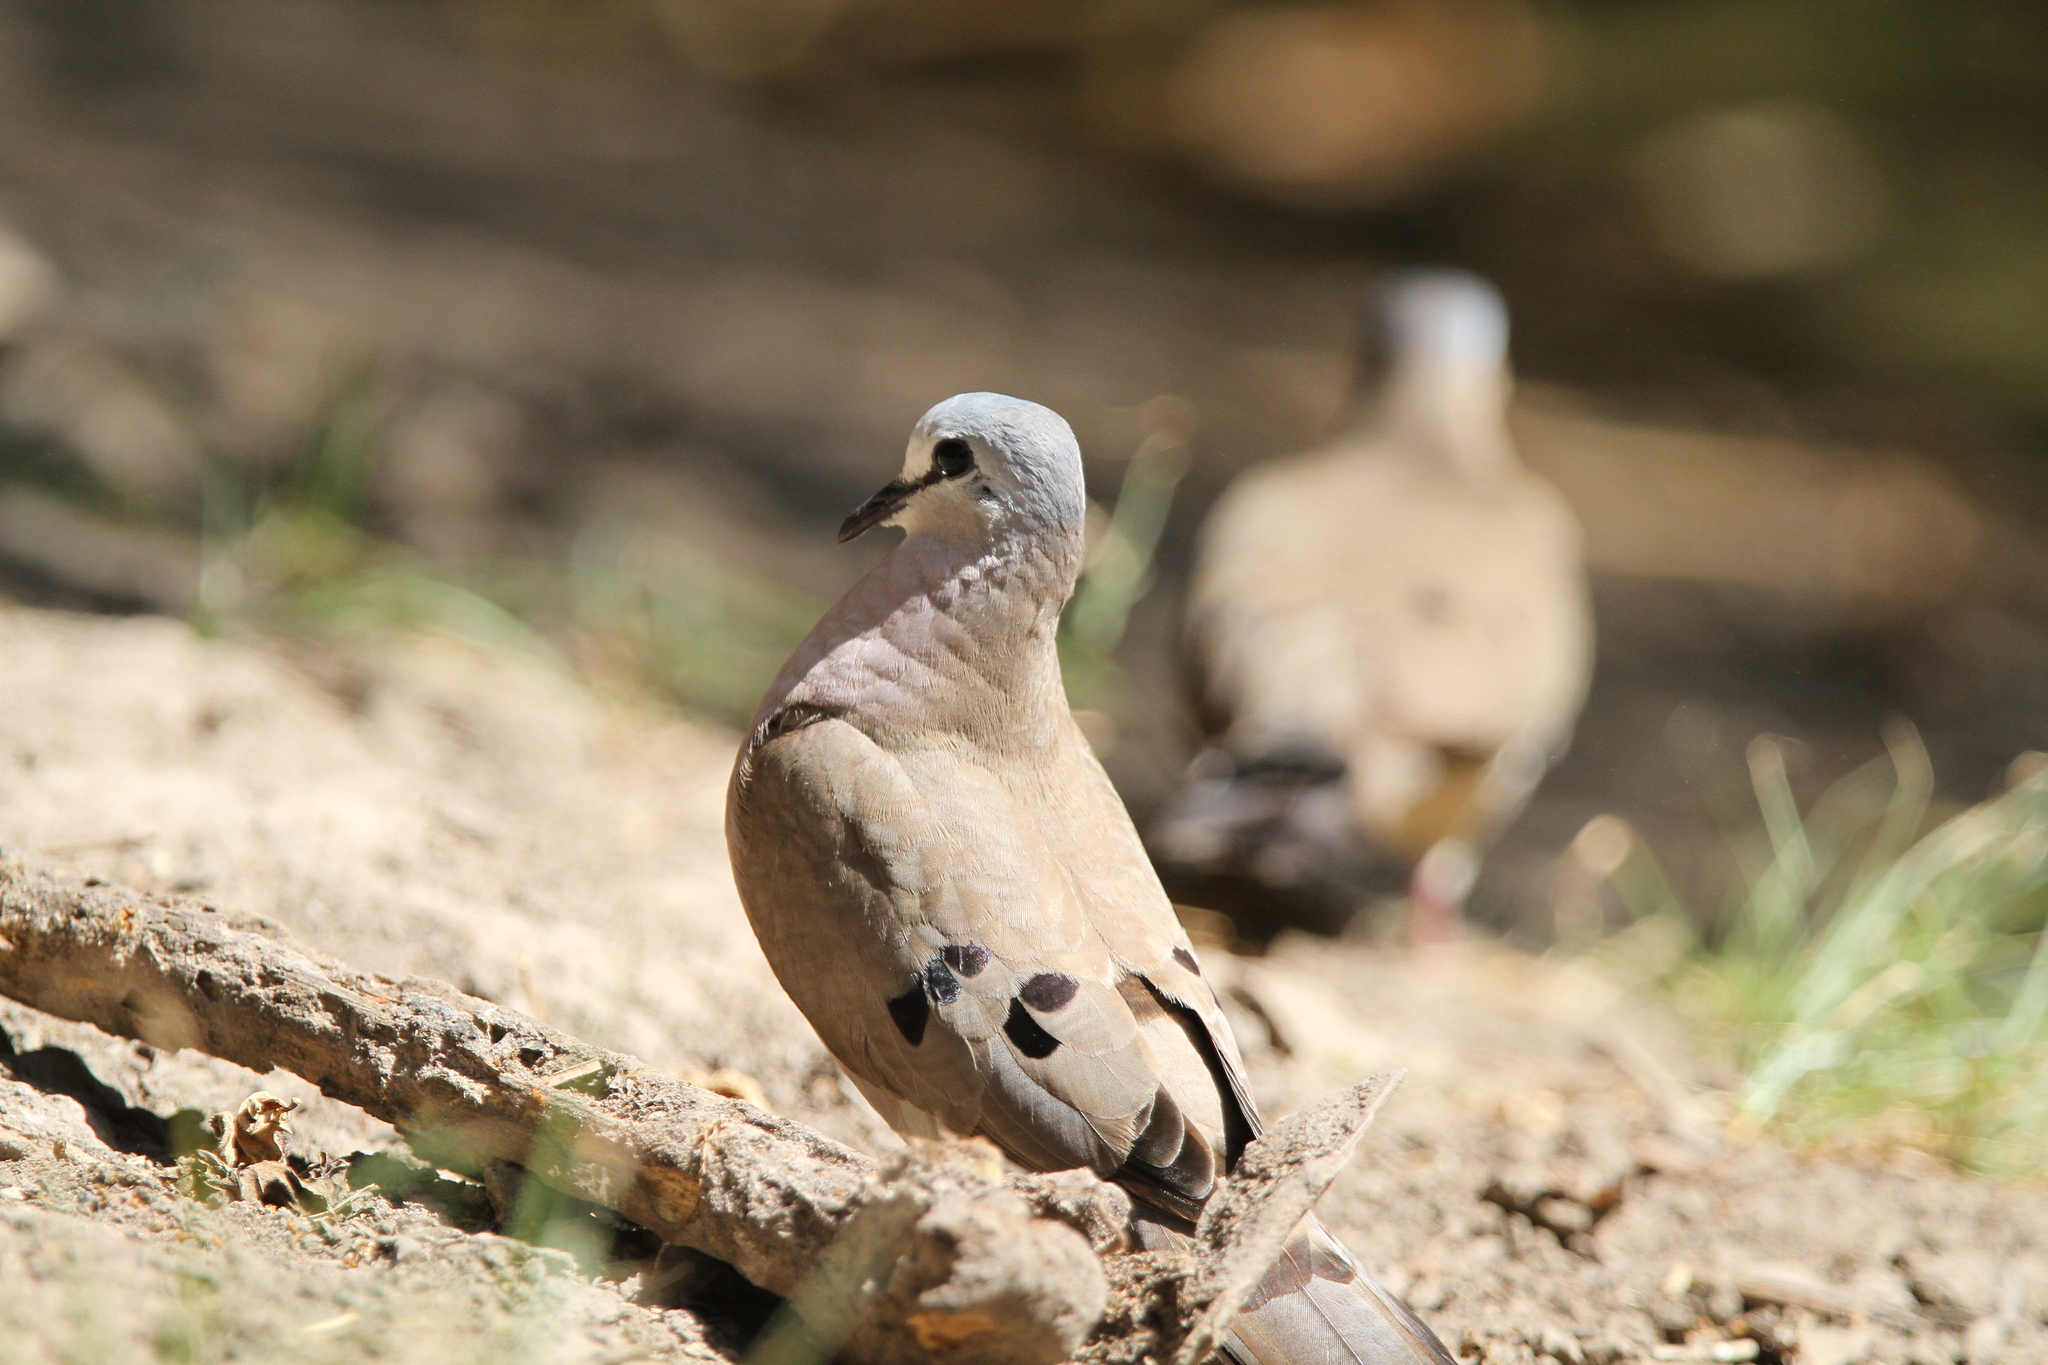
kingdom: Animalia
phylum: Chordata
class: Aves
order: Columbiformes
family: Columbidae
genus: Turtur
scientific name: Turtur abyssinicus
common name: Black-billed wood dove
